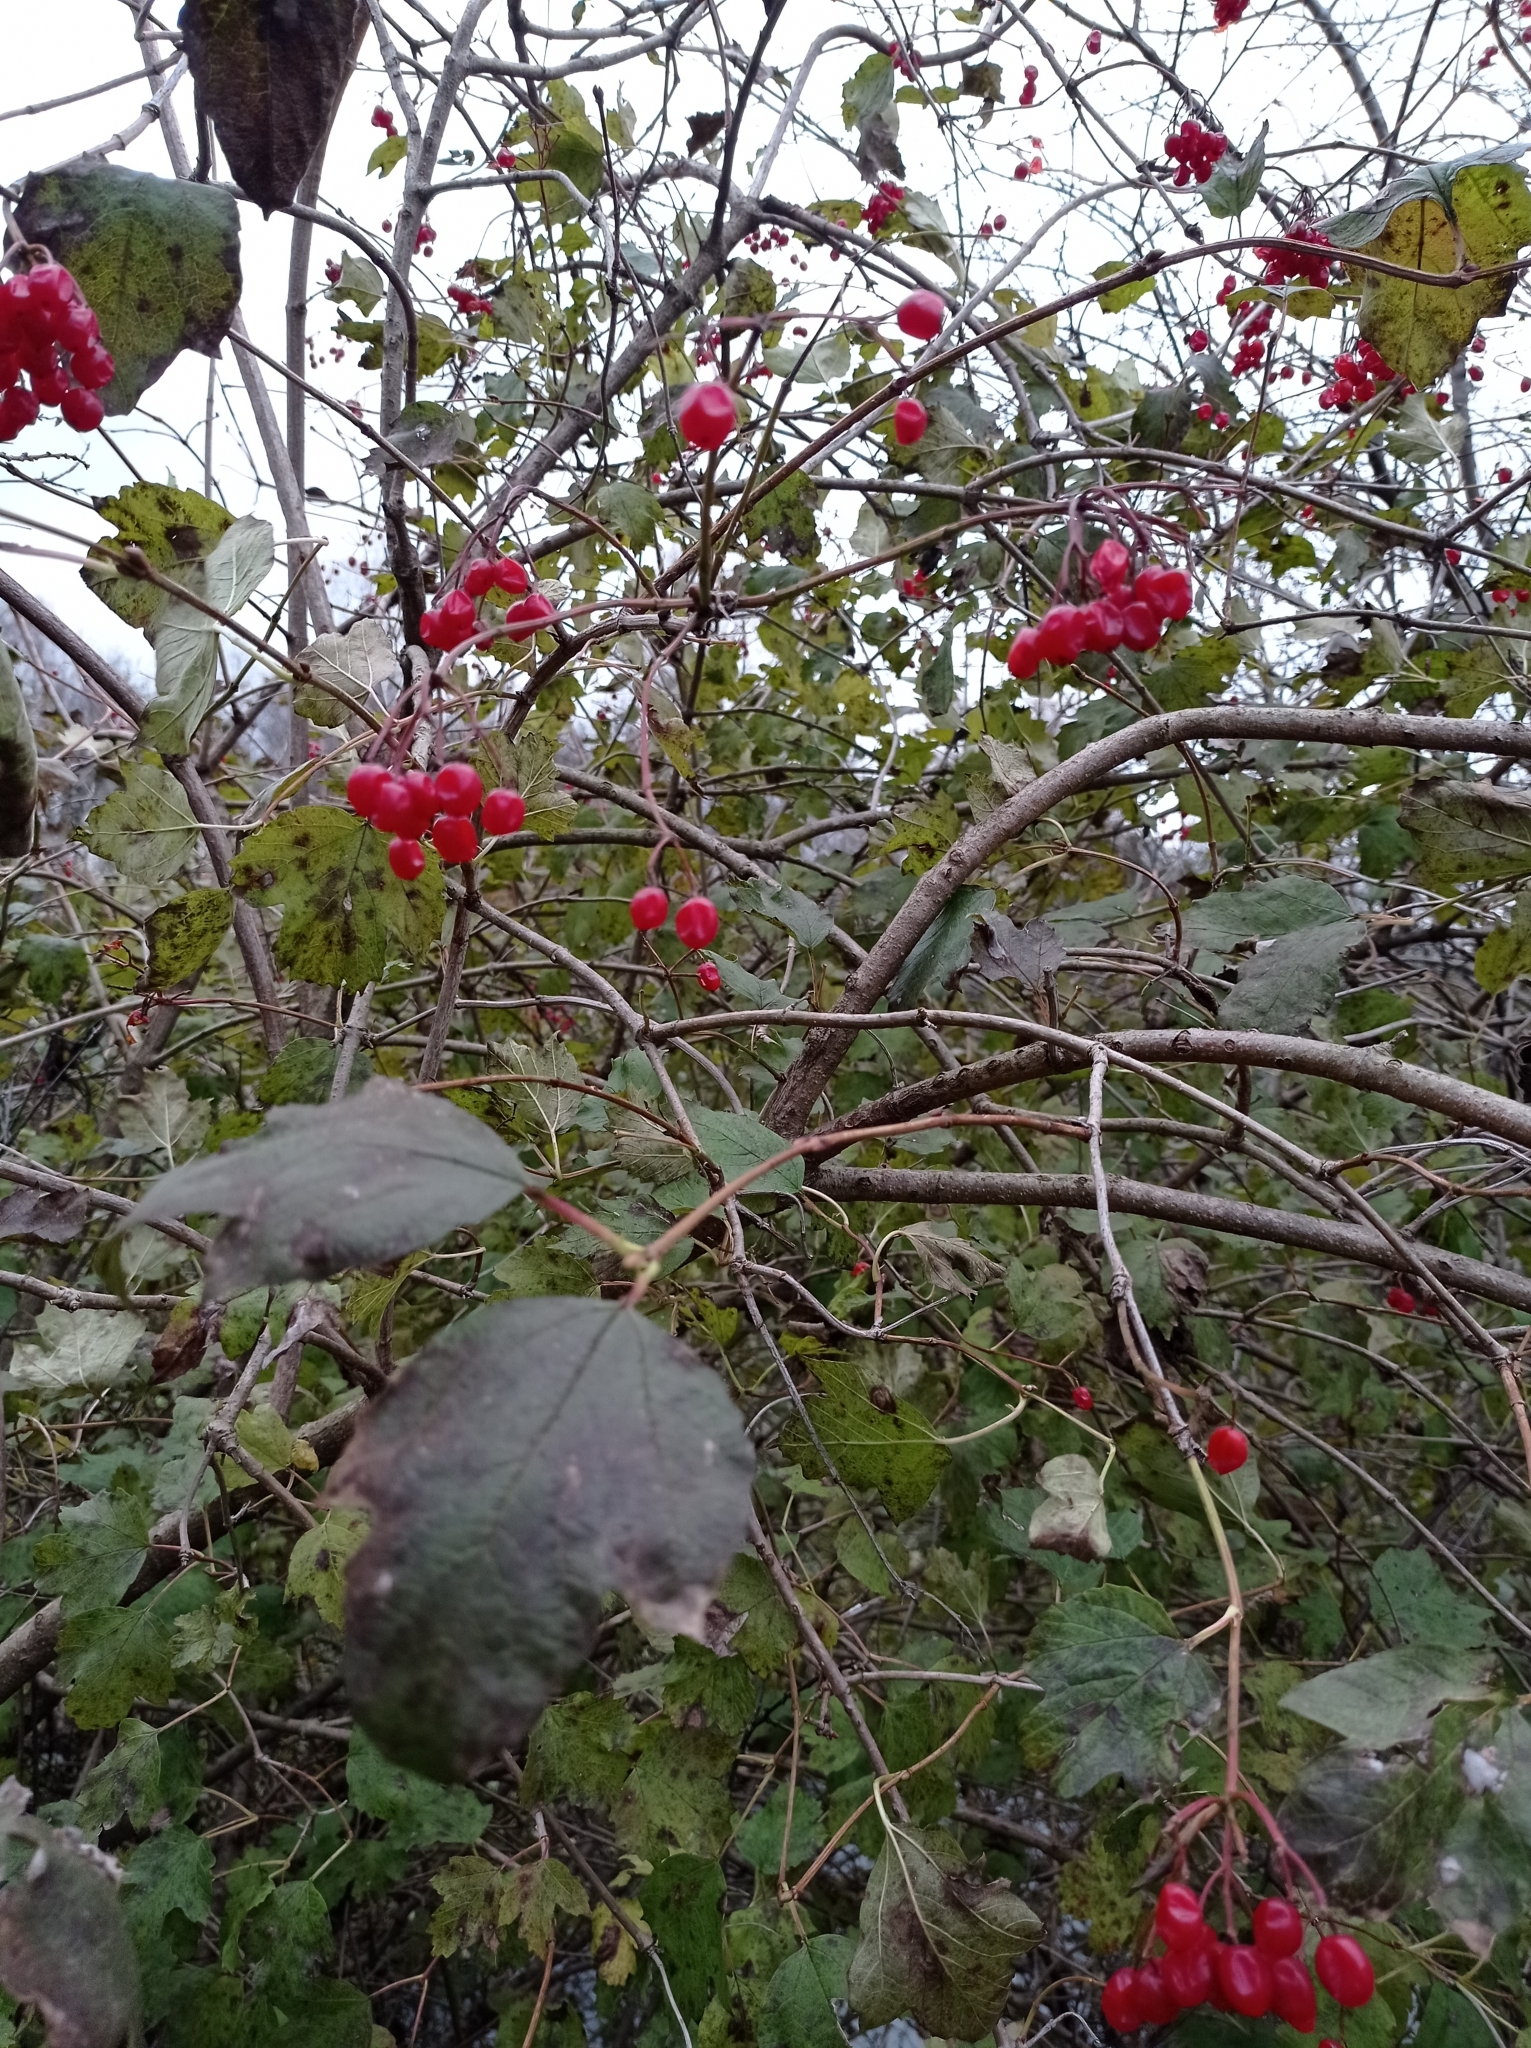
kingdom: Plantae
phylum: Tracheophyta
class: Magnoliopsida
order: Dipsacales
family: Viburnaceae
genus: Viburnum
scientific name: Viburnum opulus
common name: Guelder-rose
